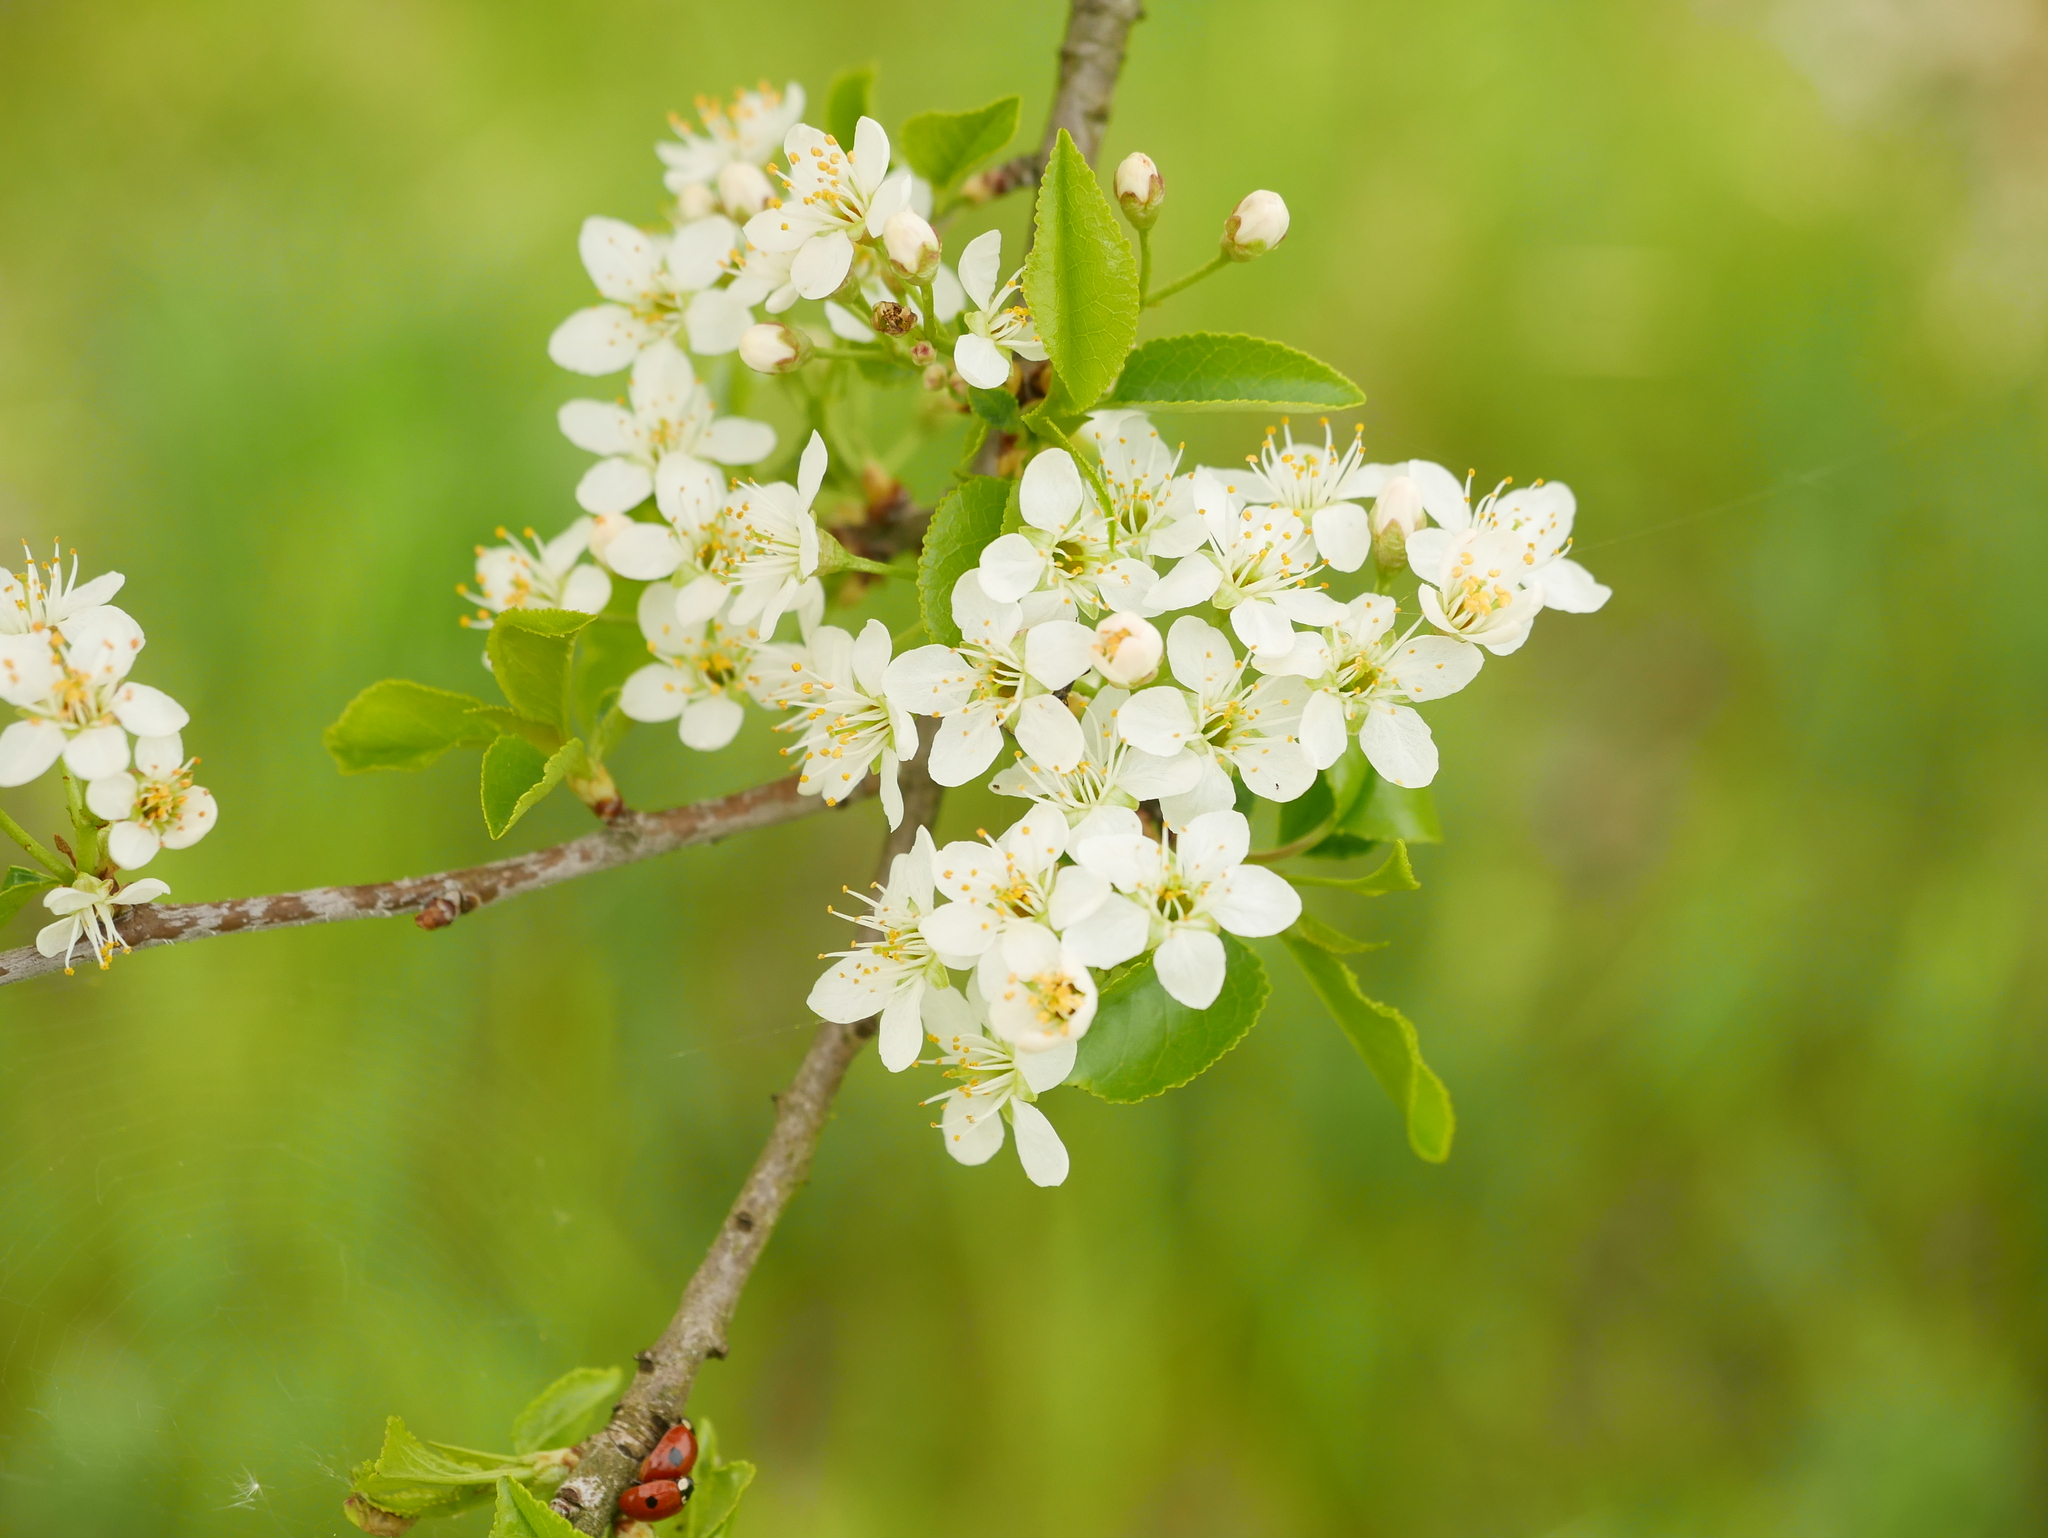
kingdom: Plantae
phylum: Tracheophyta
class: Magnoliopsida
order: Rosales
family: Rosaceae
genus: Prunus
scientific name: Prunus mahaleb
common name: Mahaleb cherry
